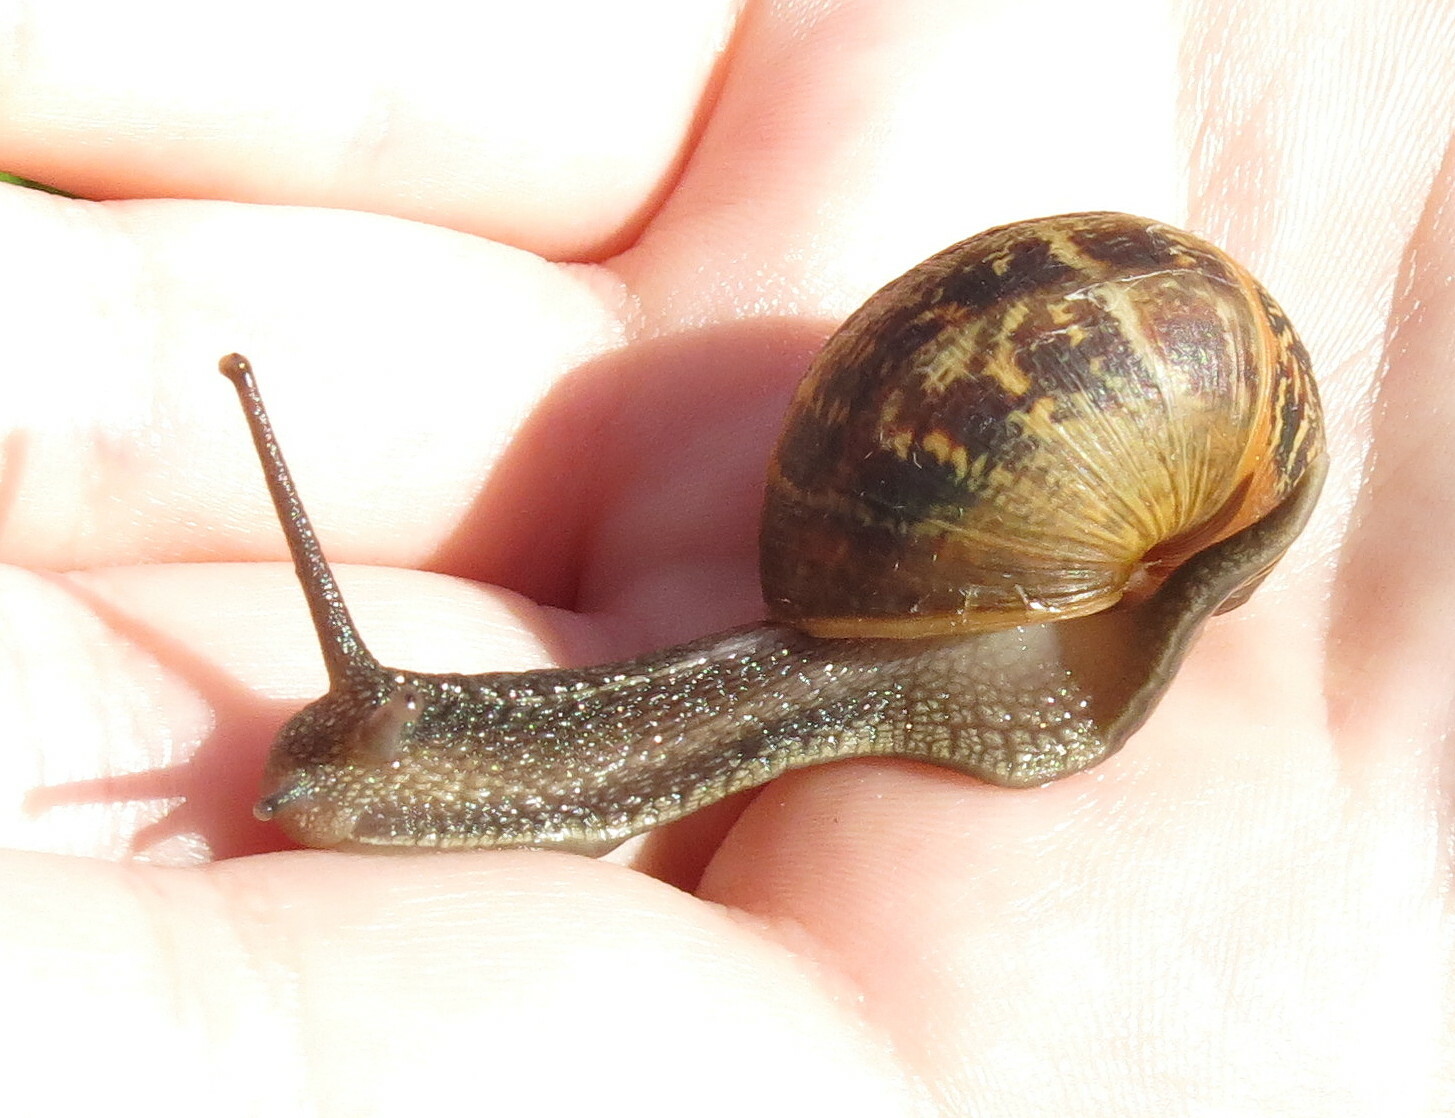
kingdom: Animalia
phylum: Mollusca
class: Gastropoda
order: Stylommatophora
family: Helicidae
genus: Cornu
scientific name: Cornu aspersum
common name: Brown garden snail
